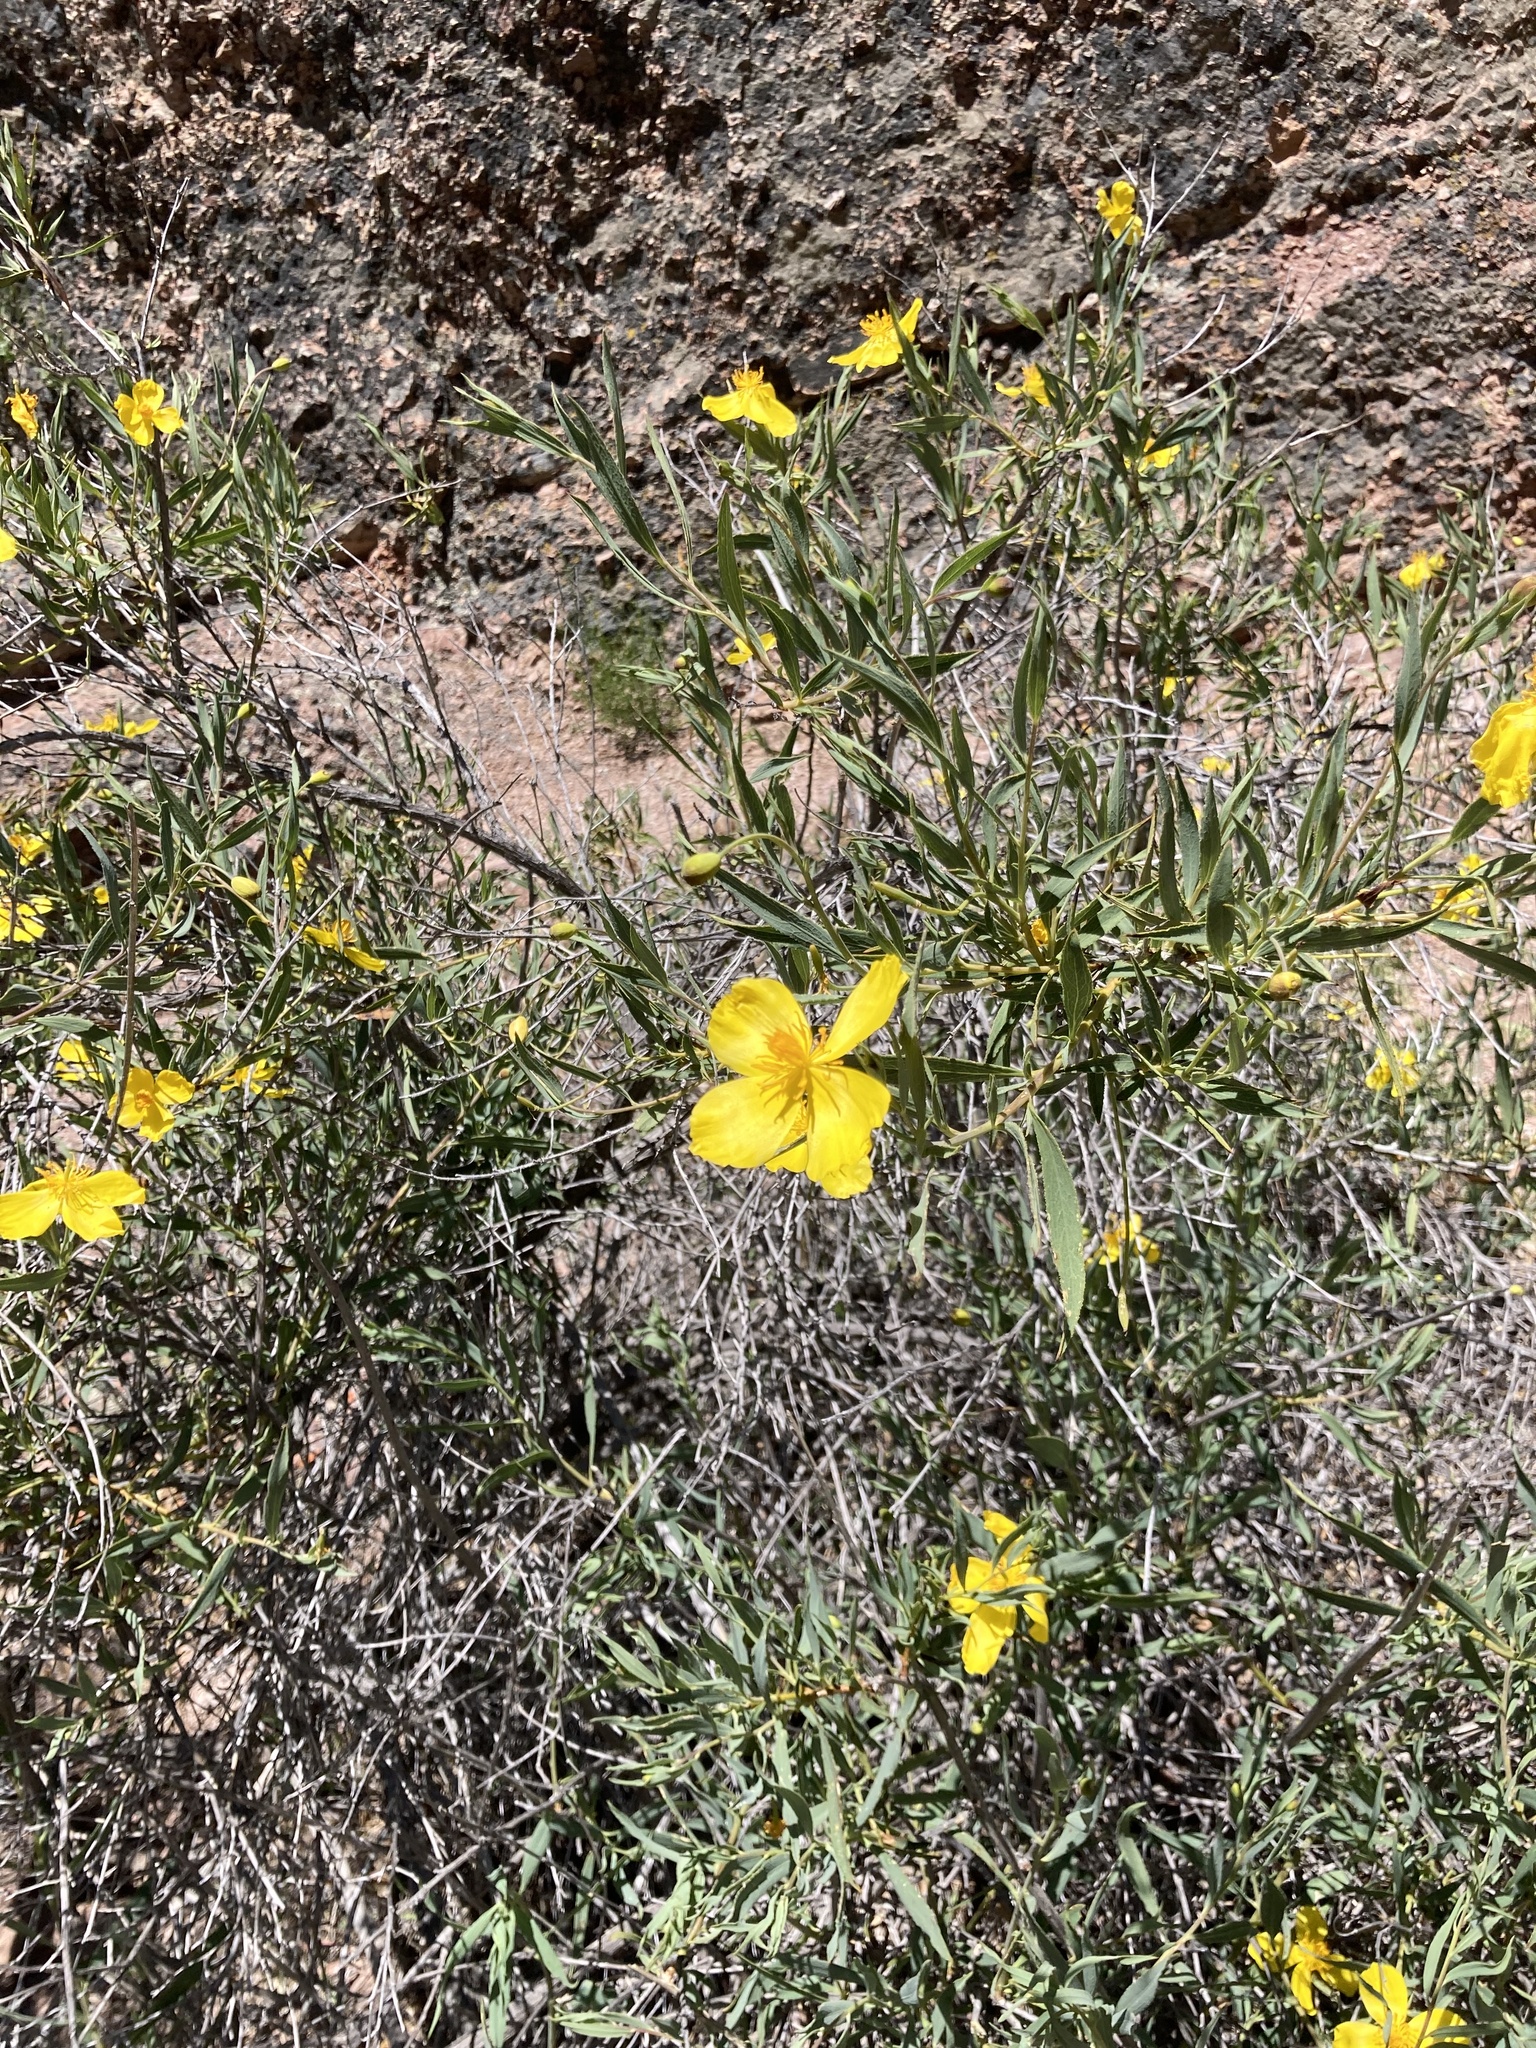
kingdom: Plantae
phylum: Tracheophyta
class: Magnoliopsida
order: Ranunculales
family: Papaveraceae
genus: Dendromecon
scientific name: Dendromecon rigida
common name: Tree poppy
